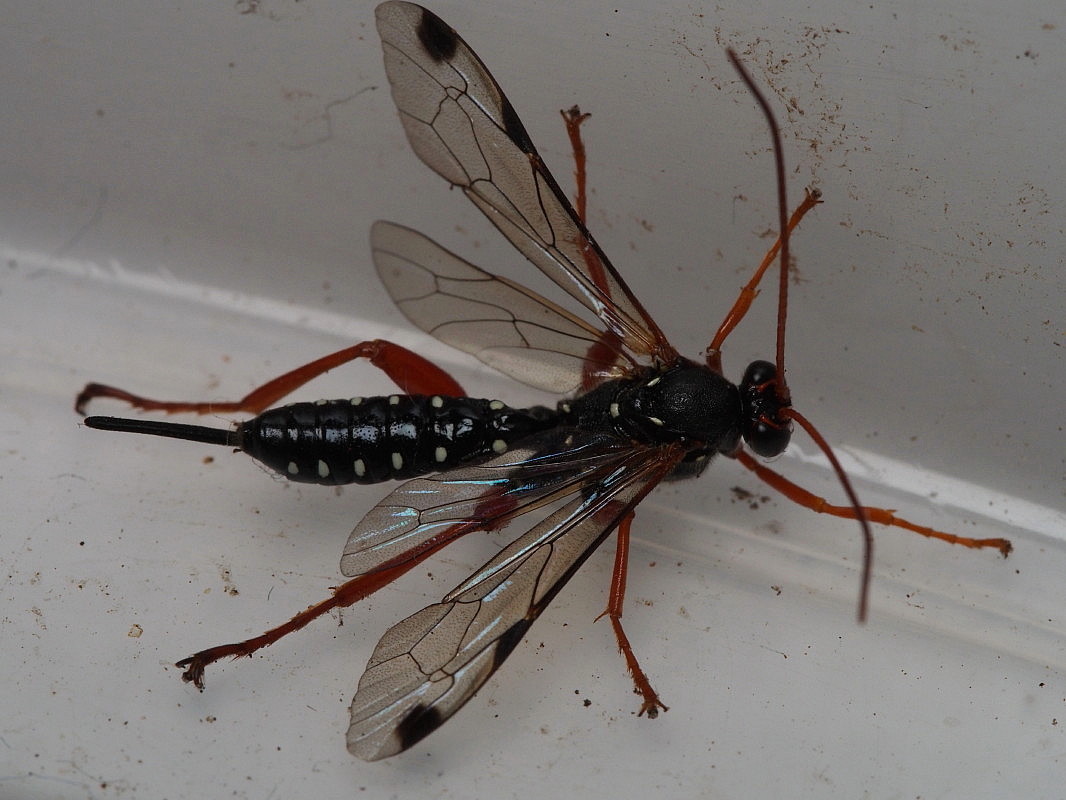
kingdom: Animalia
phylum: Arthropoda
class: Insecta
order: Hymenoptera
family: Ichneumonidae
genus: Echthromorpha
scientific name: Echthromorpha intricatoria
